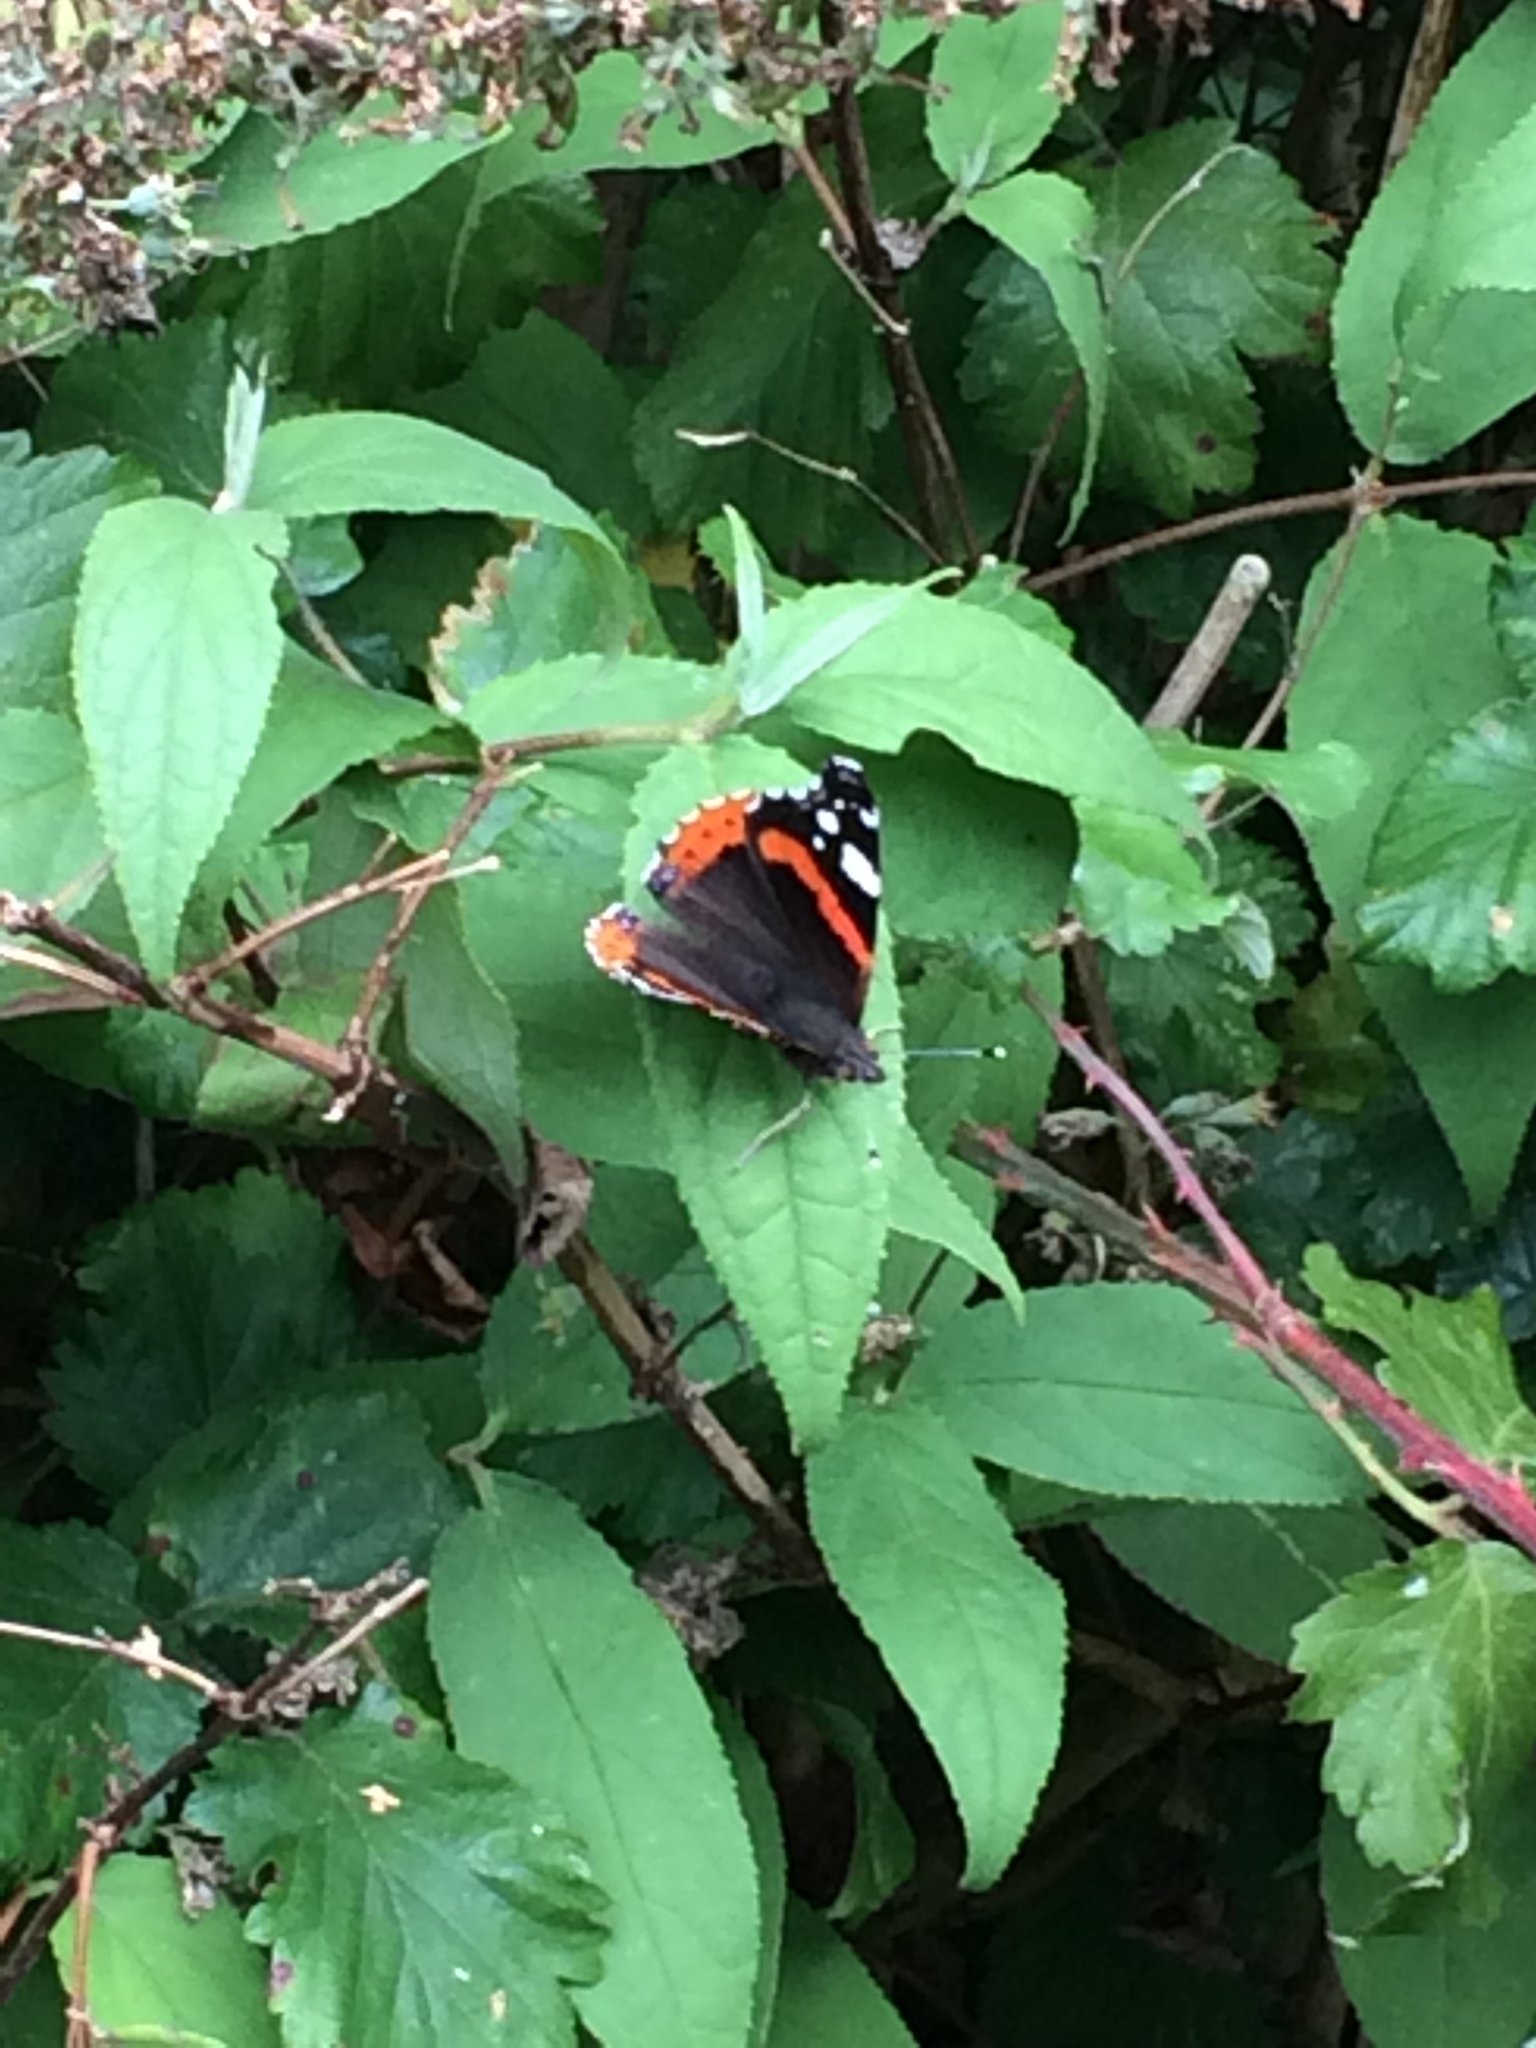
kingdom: Animalia
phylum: Arthropoda
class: Insecta
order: Lepidoptera
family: Nymphalidae
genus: Vanessa
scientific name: Vanessa atalanta
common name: Red admiral
